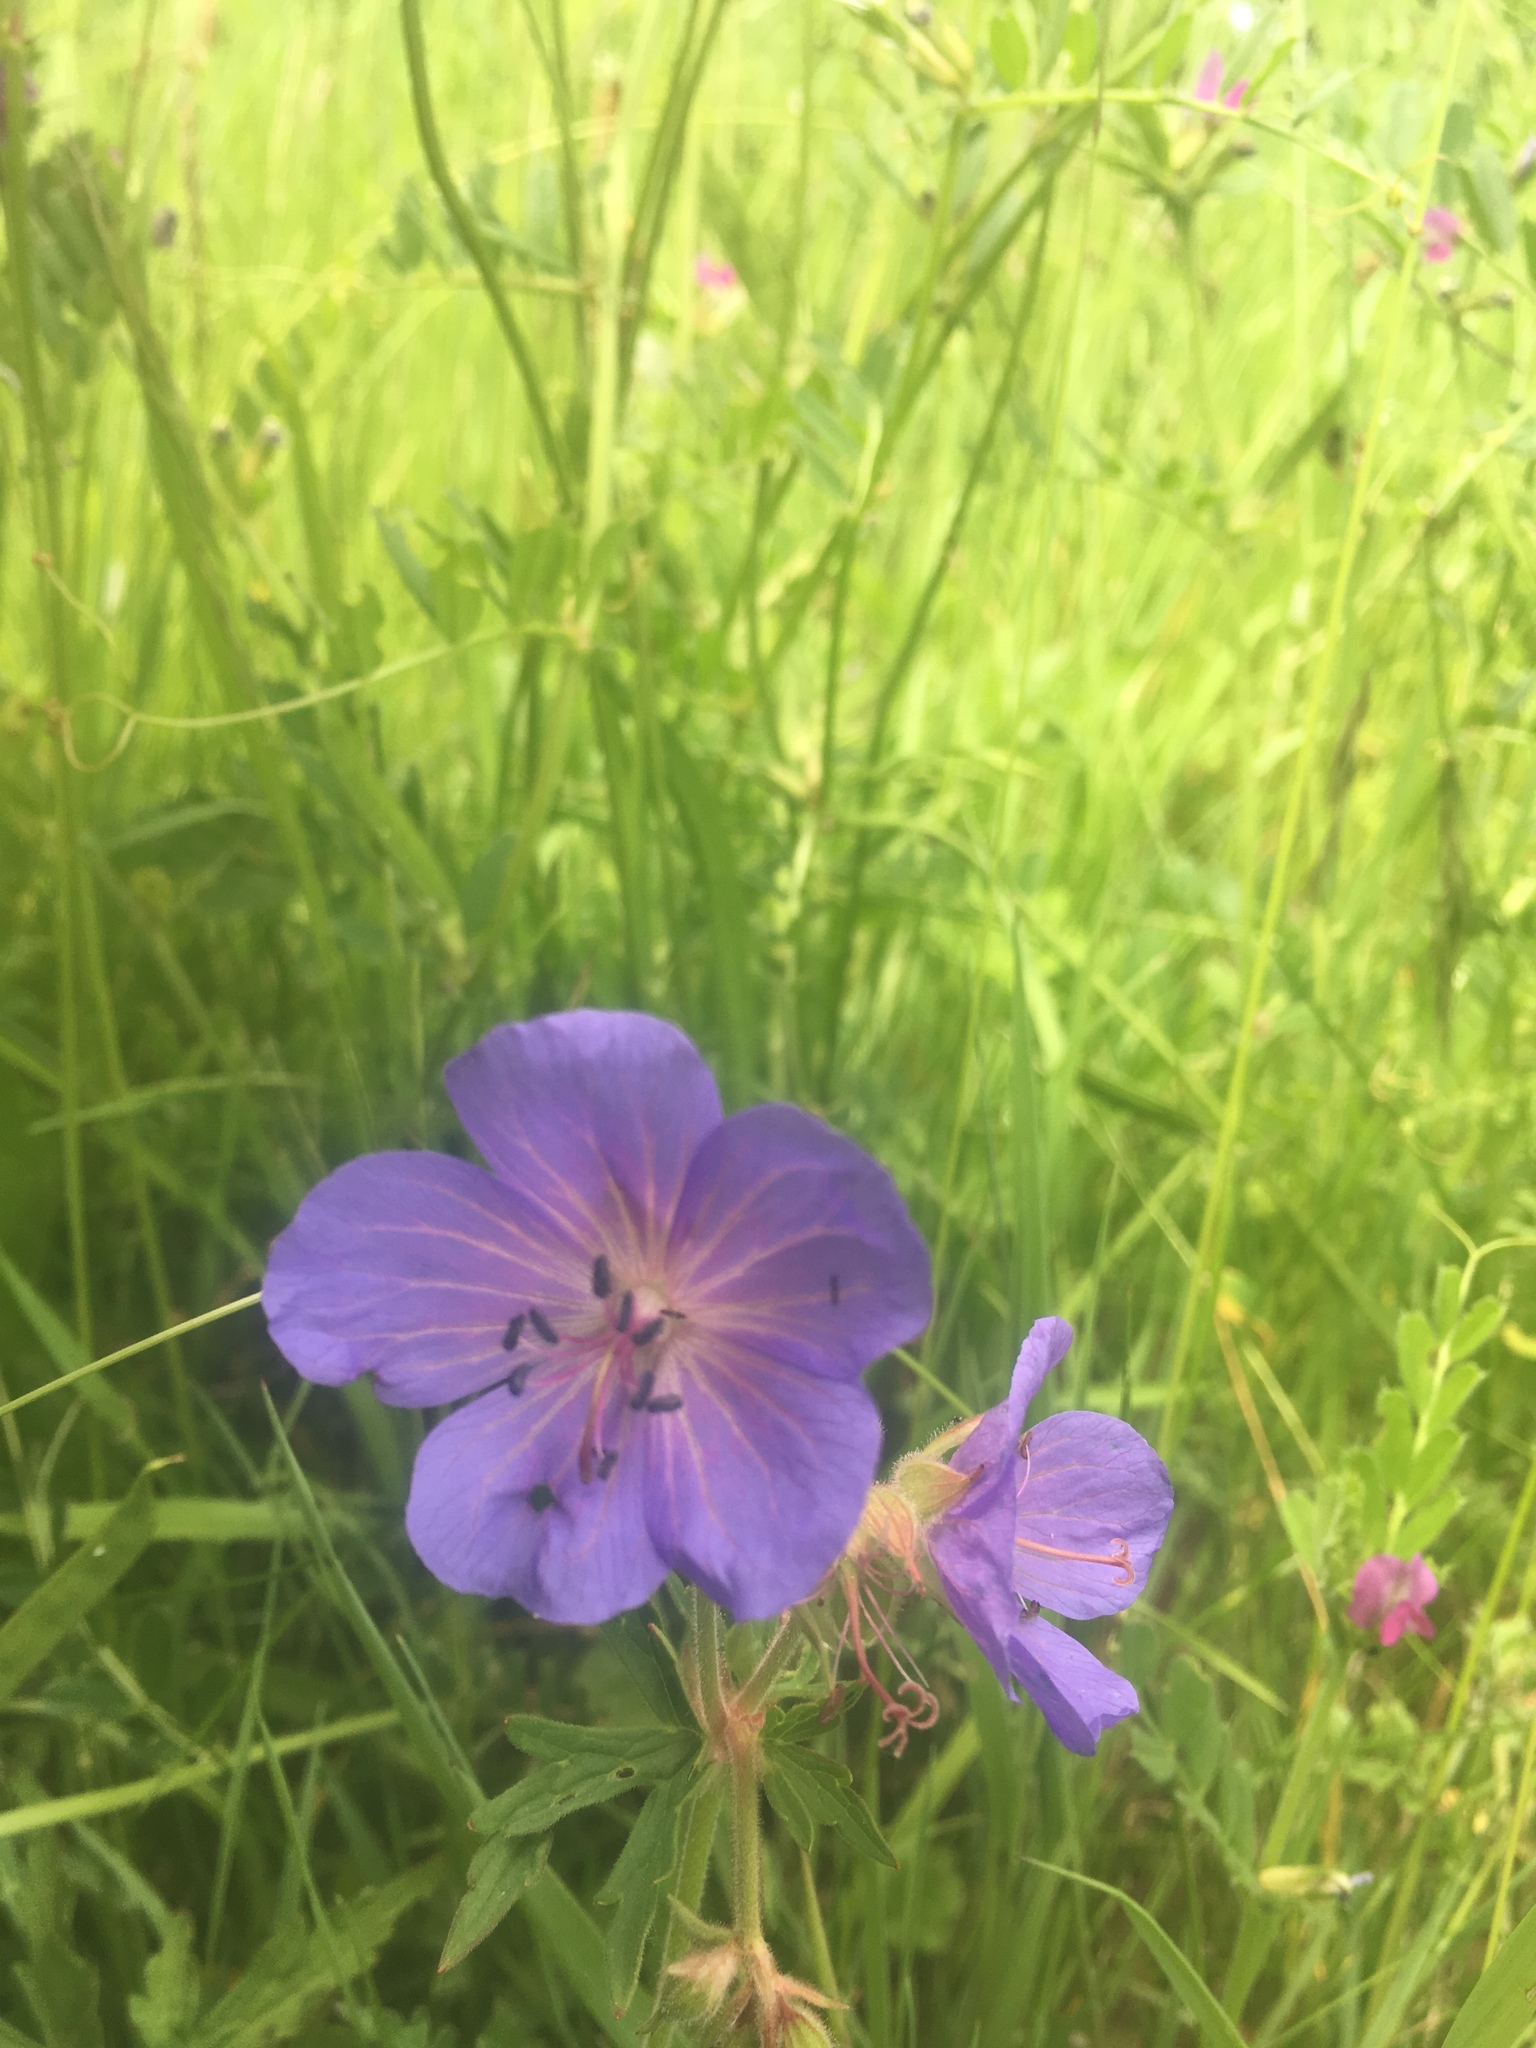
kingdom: Plantae
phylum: Tracheophyta
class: Magnoliopsida
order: Geraniales
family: Geraniaceae
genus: Geranium
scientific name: Geranium pratense
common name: Meadow crane's-bill
